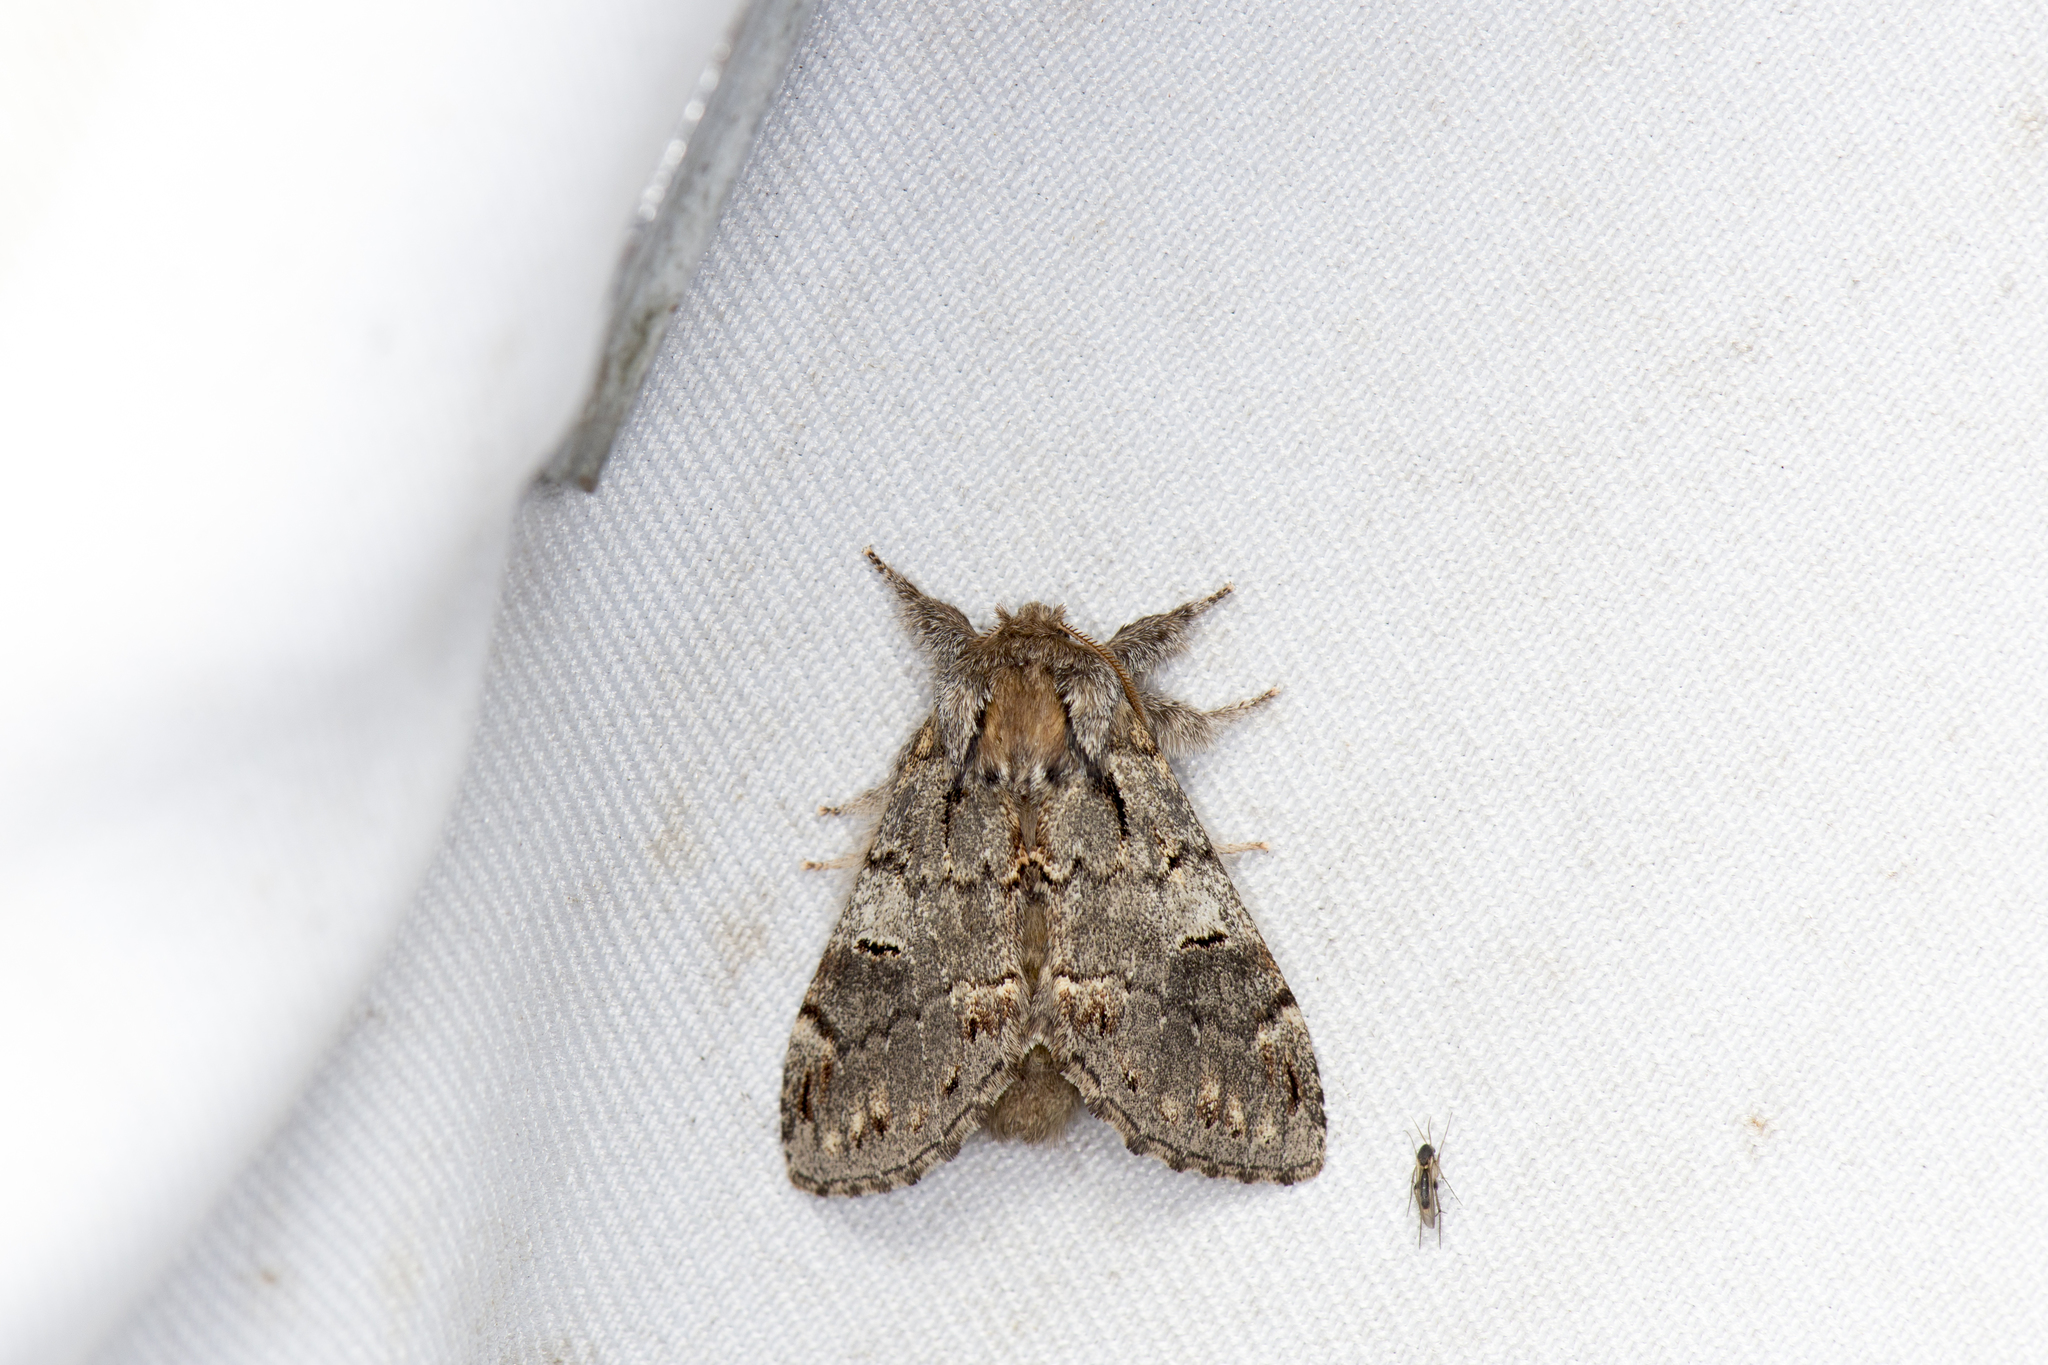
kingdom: Animalia
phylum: Arthropoda
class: Insecta
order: Lepidoptera
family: Notodontidae
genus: Notodonta
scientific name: Notodonta griseotincta
